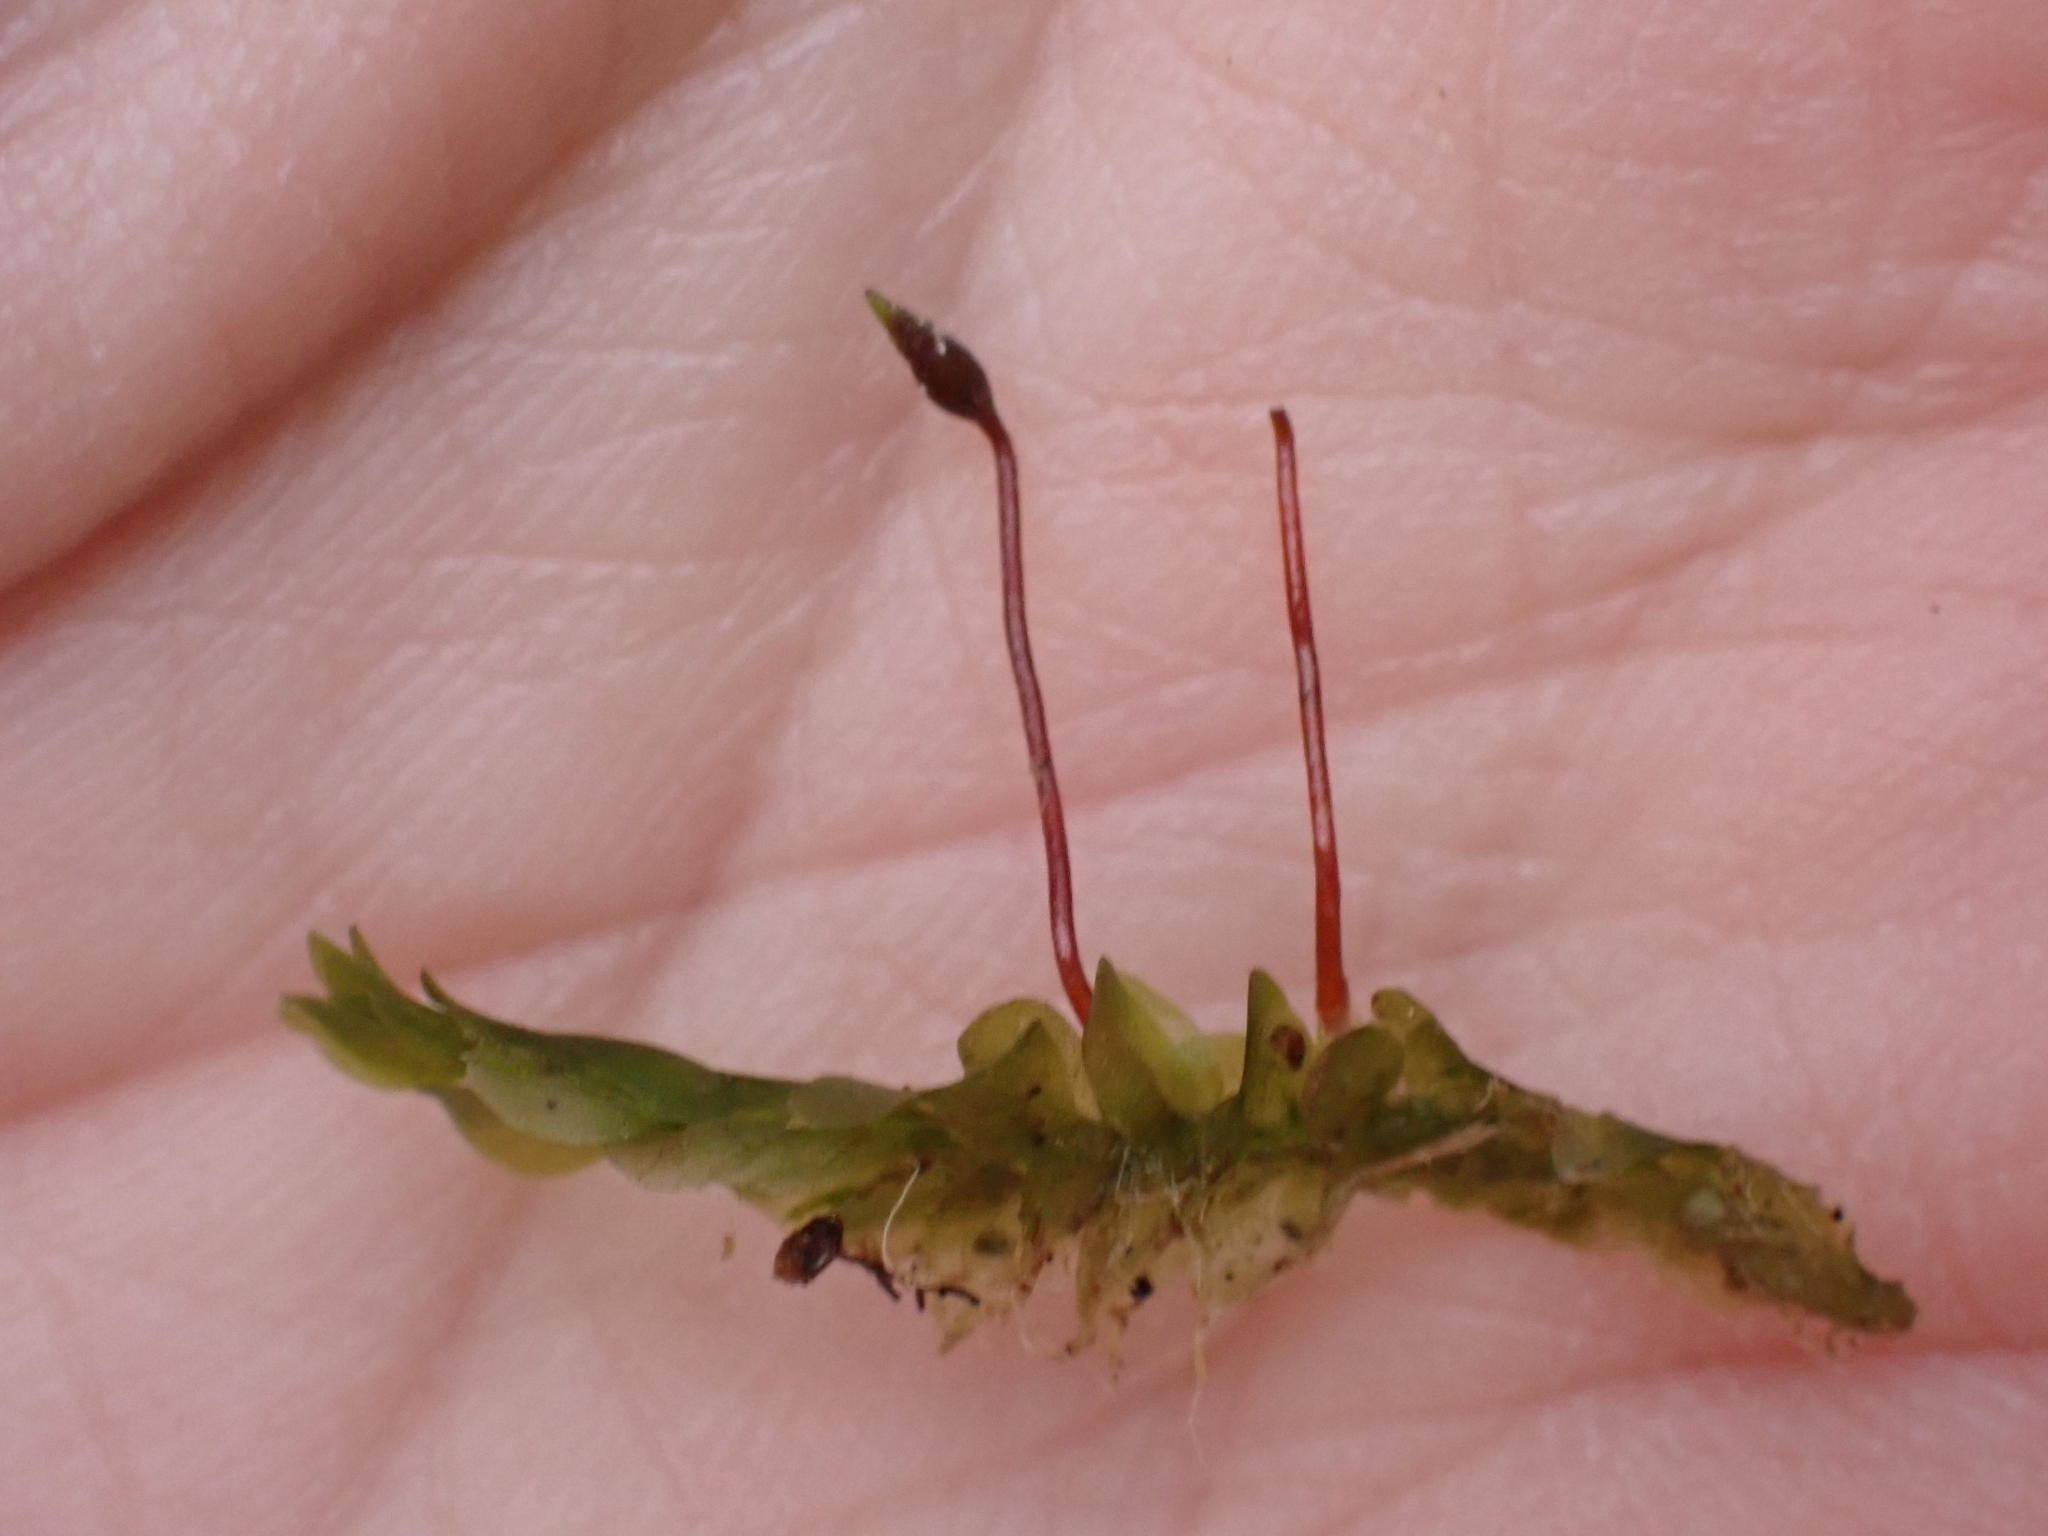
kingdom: Plantae
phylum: Bryophyta
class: Bryopsida
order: Hookeriales
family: Hookeriaceae
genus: Hookeria
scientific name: Hookeria lucens
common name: Shining hookeria
